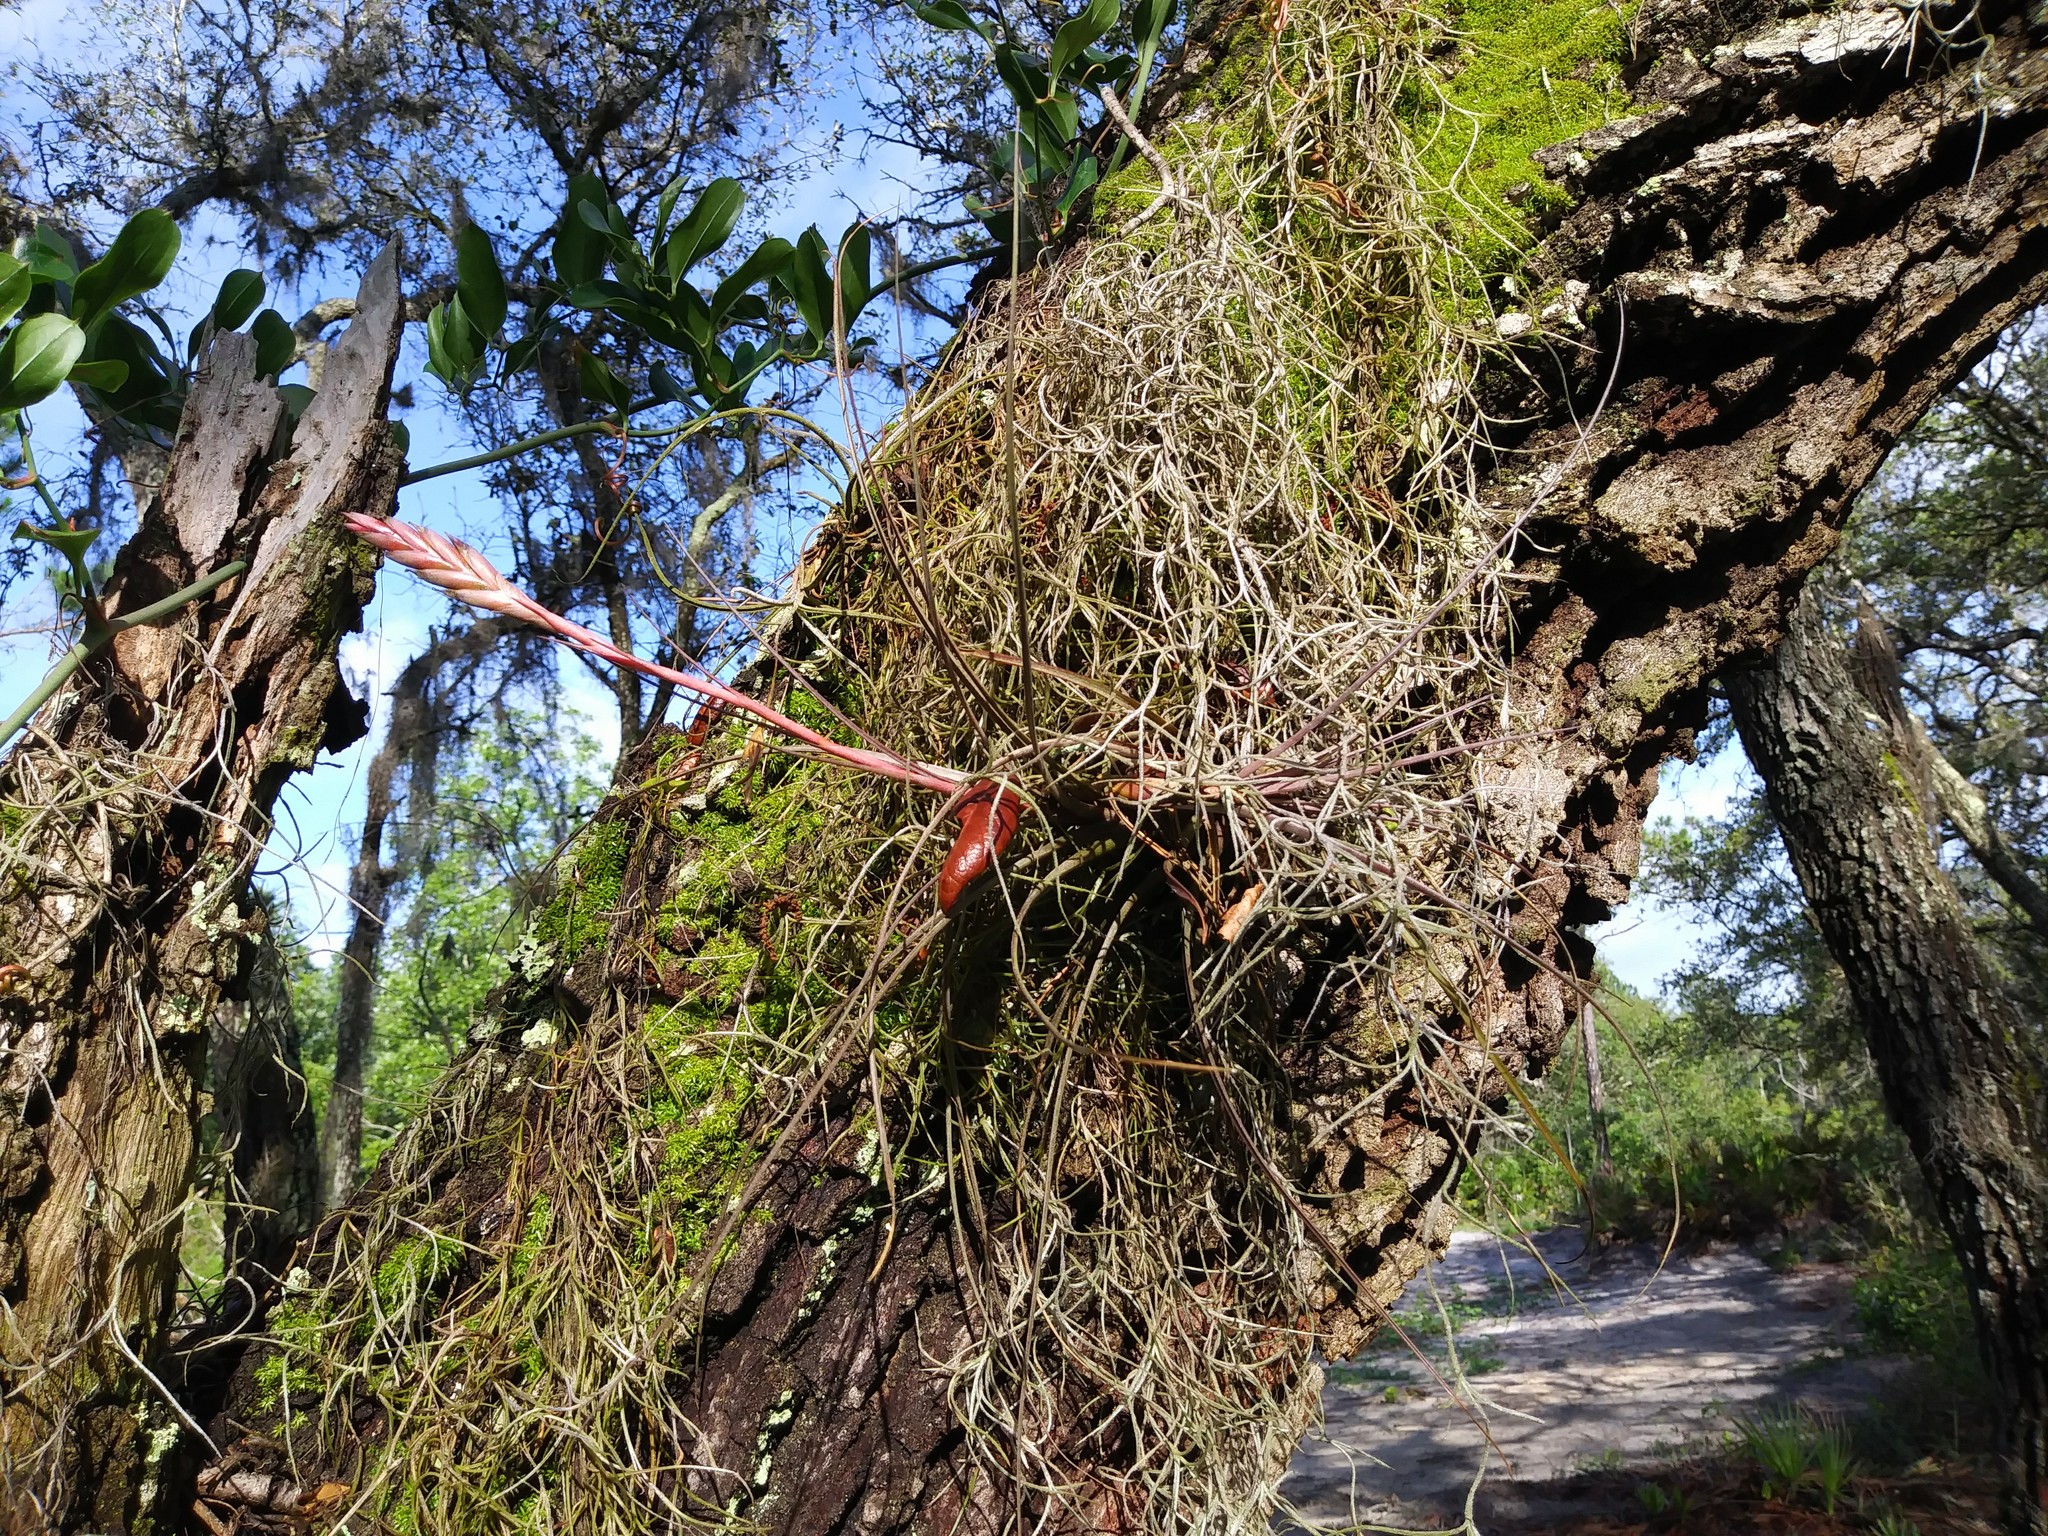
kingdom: Plantae
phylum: Tracheophyta
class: Liliopsida
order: Poales
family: Bromeliaceae
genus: Tillandsia
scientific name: Tillandsia balbisiana
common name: Northern needleleaf
